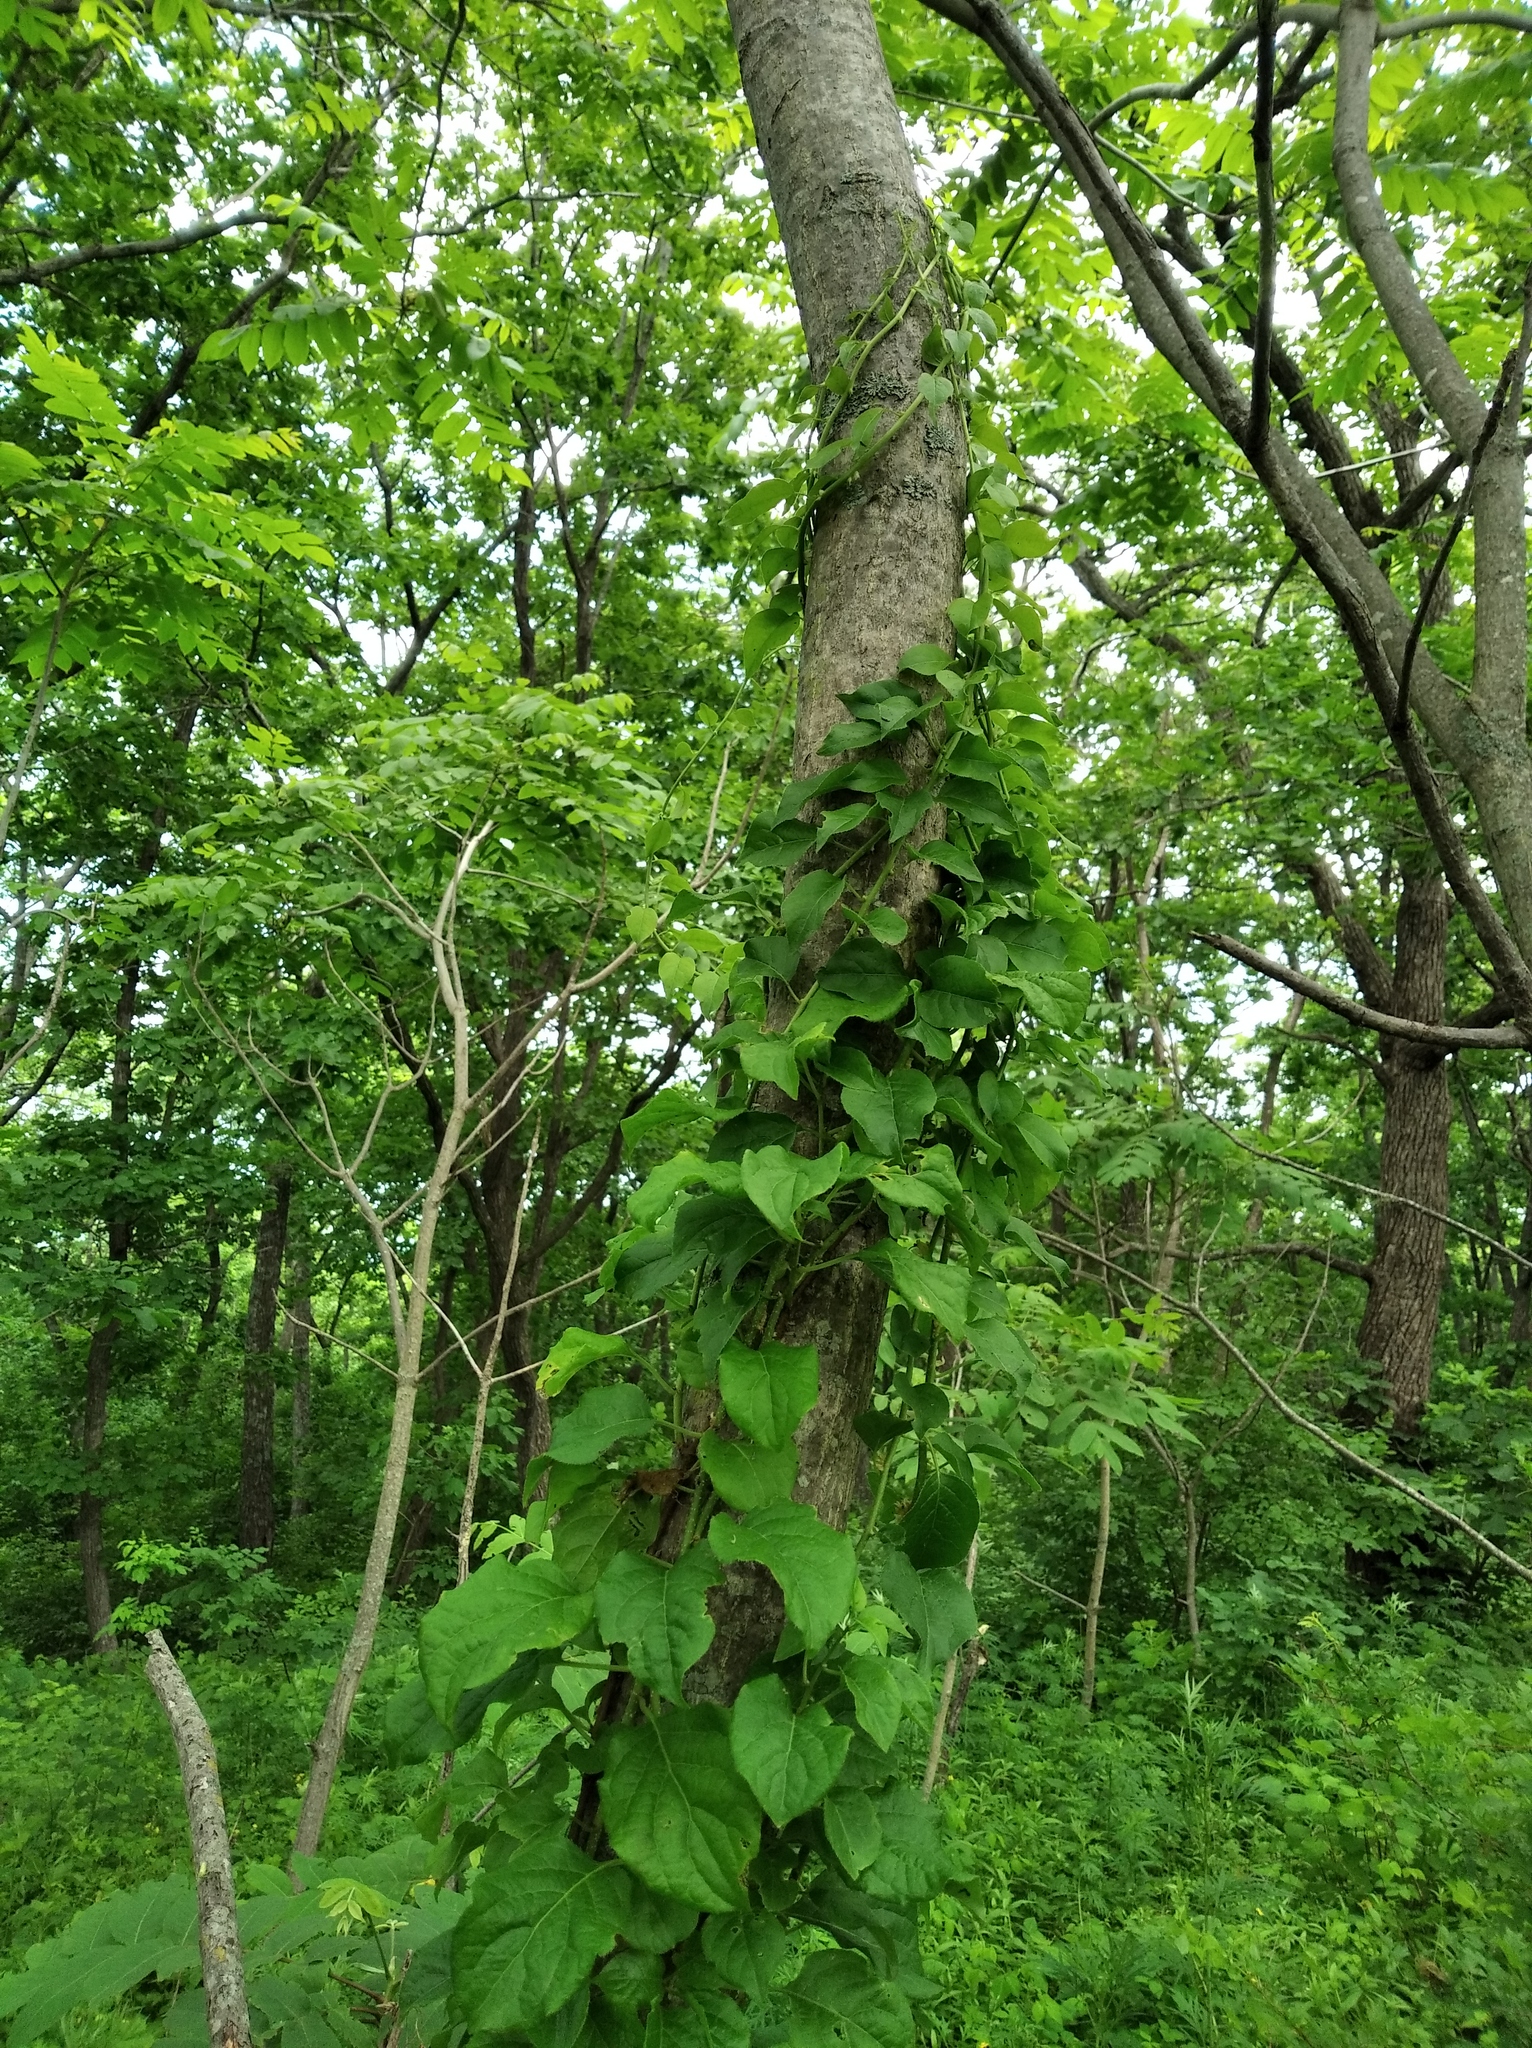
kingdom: Plantae
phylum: Tracheophyta
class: Magnoliopsida
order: Celastrales
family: Celastraceae
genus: Celastrus
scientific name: Celastrus flagellaris
